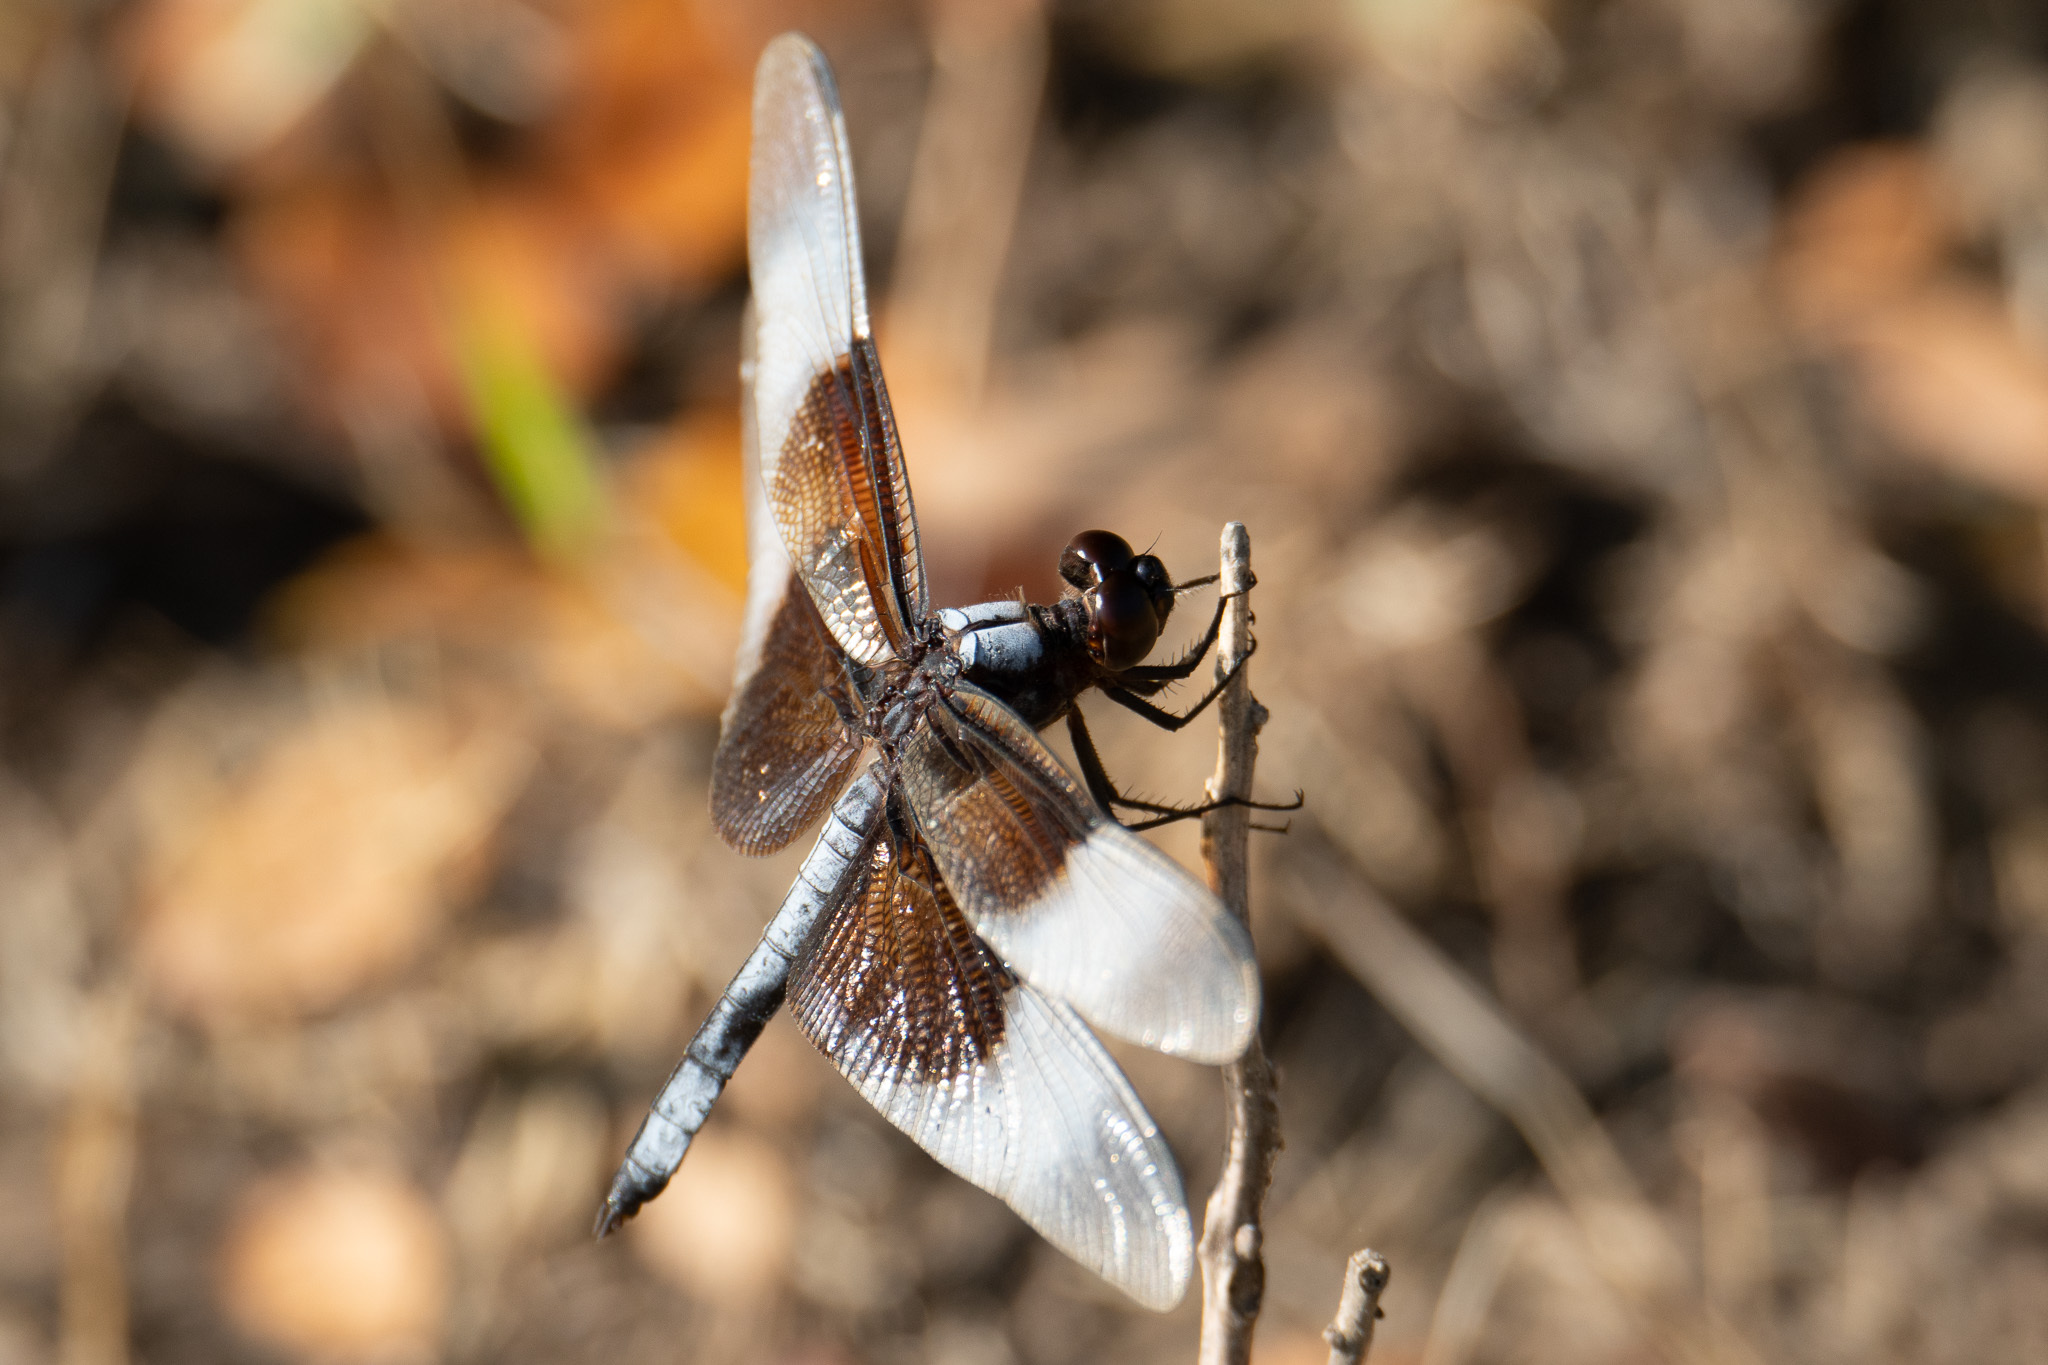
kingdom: Animalia
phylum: Arthropoda
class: Insecta
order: Odonata
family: Libellulidae
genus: Libellula
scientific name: Libellula luctuosa
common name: Widow skimmer
